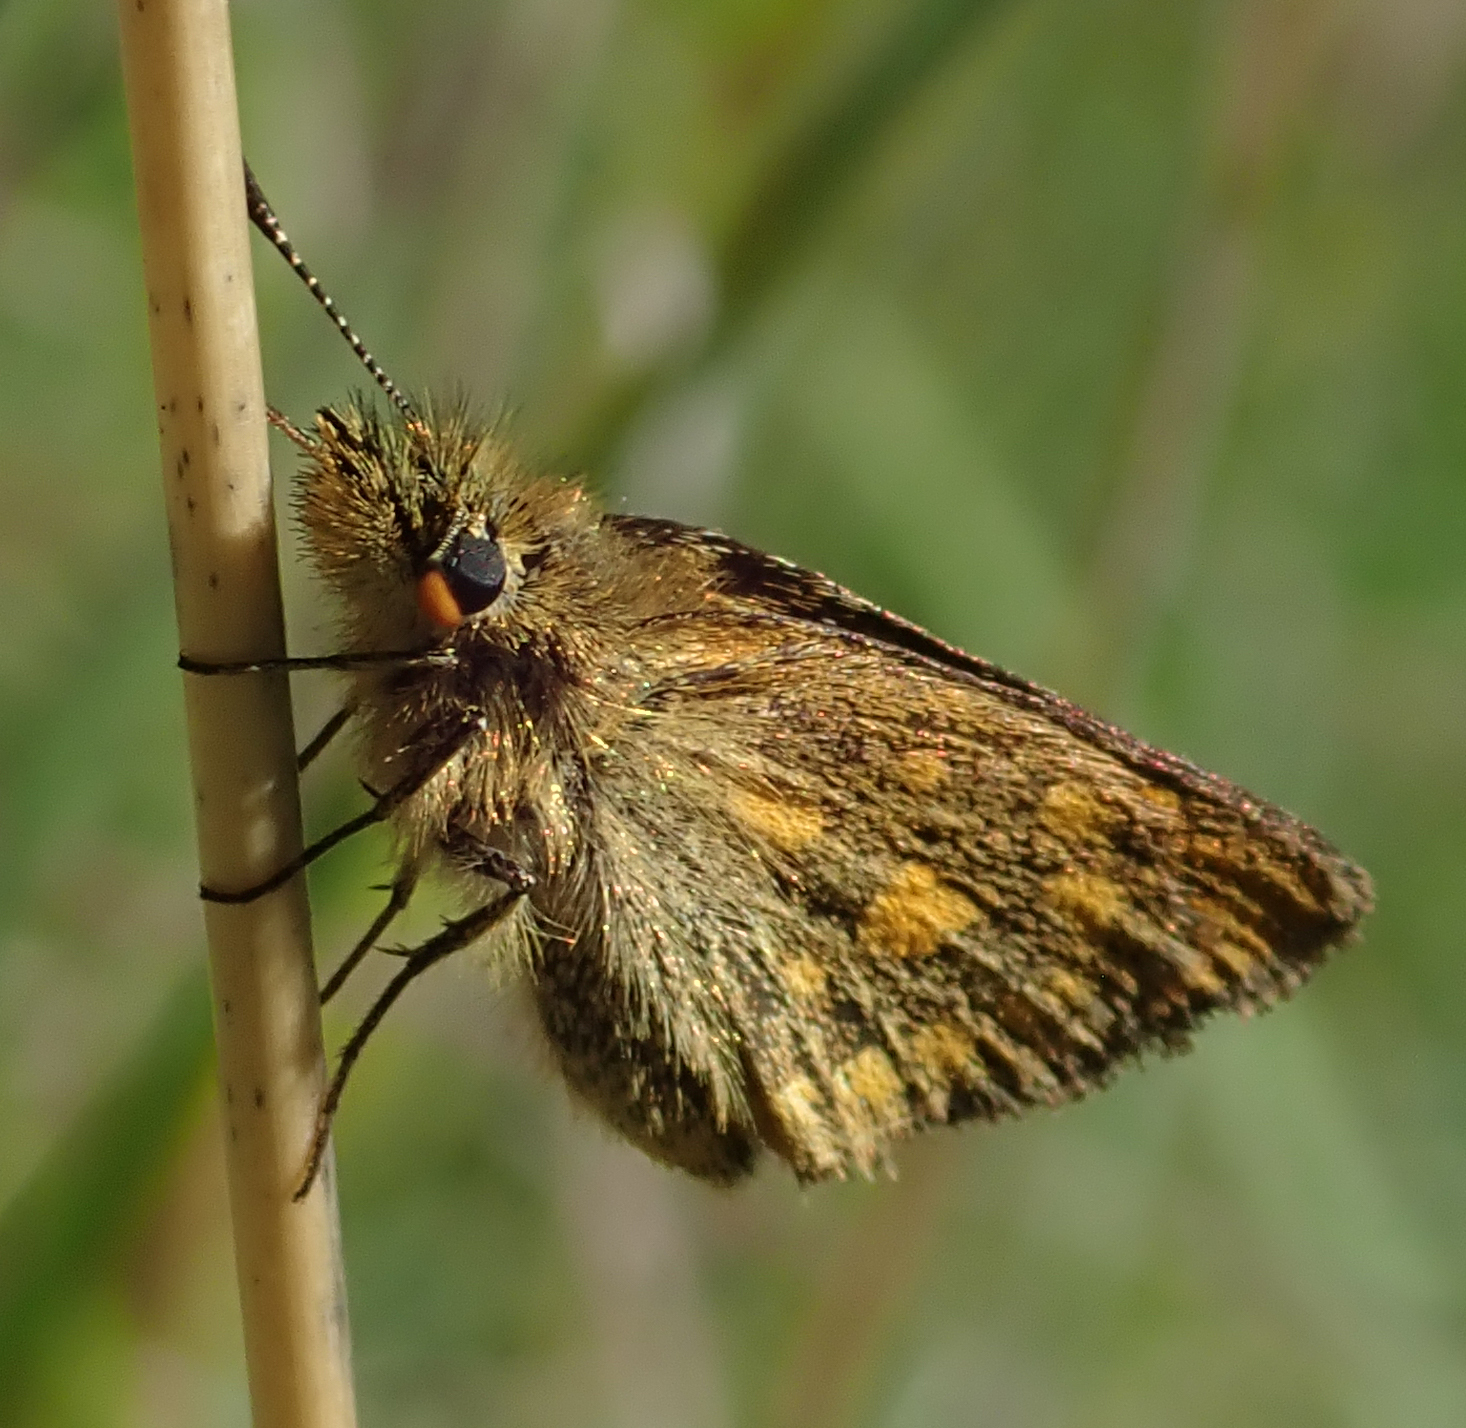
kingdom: Animalia
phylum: Arthropoda
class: Insecta
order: Lepidoptera
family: Hesperiidae
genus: Metisella
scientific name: Metisella metis
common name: Western gold-spotted sylph
